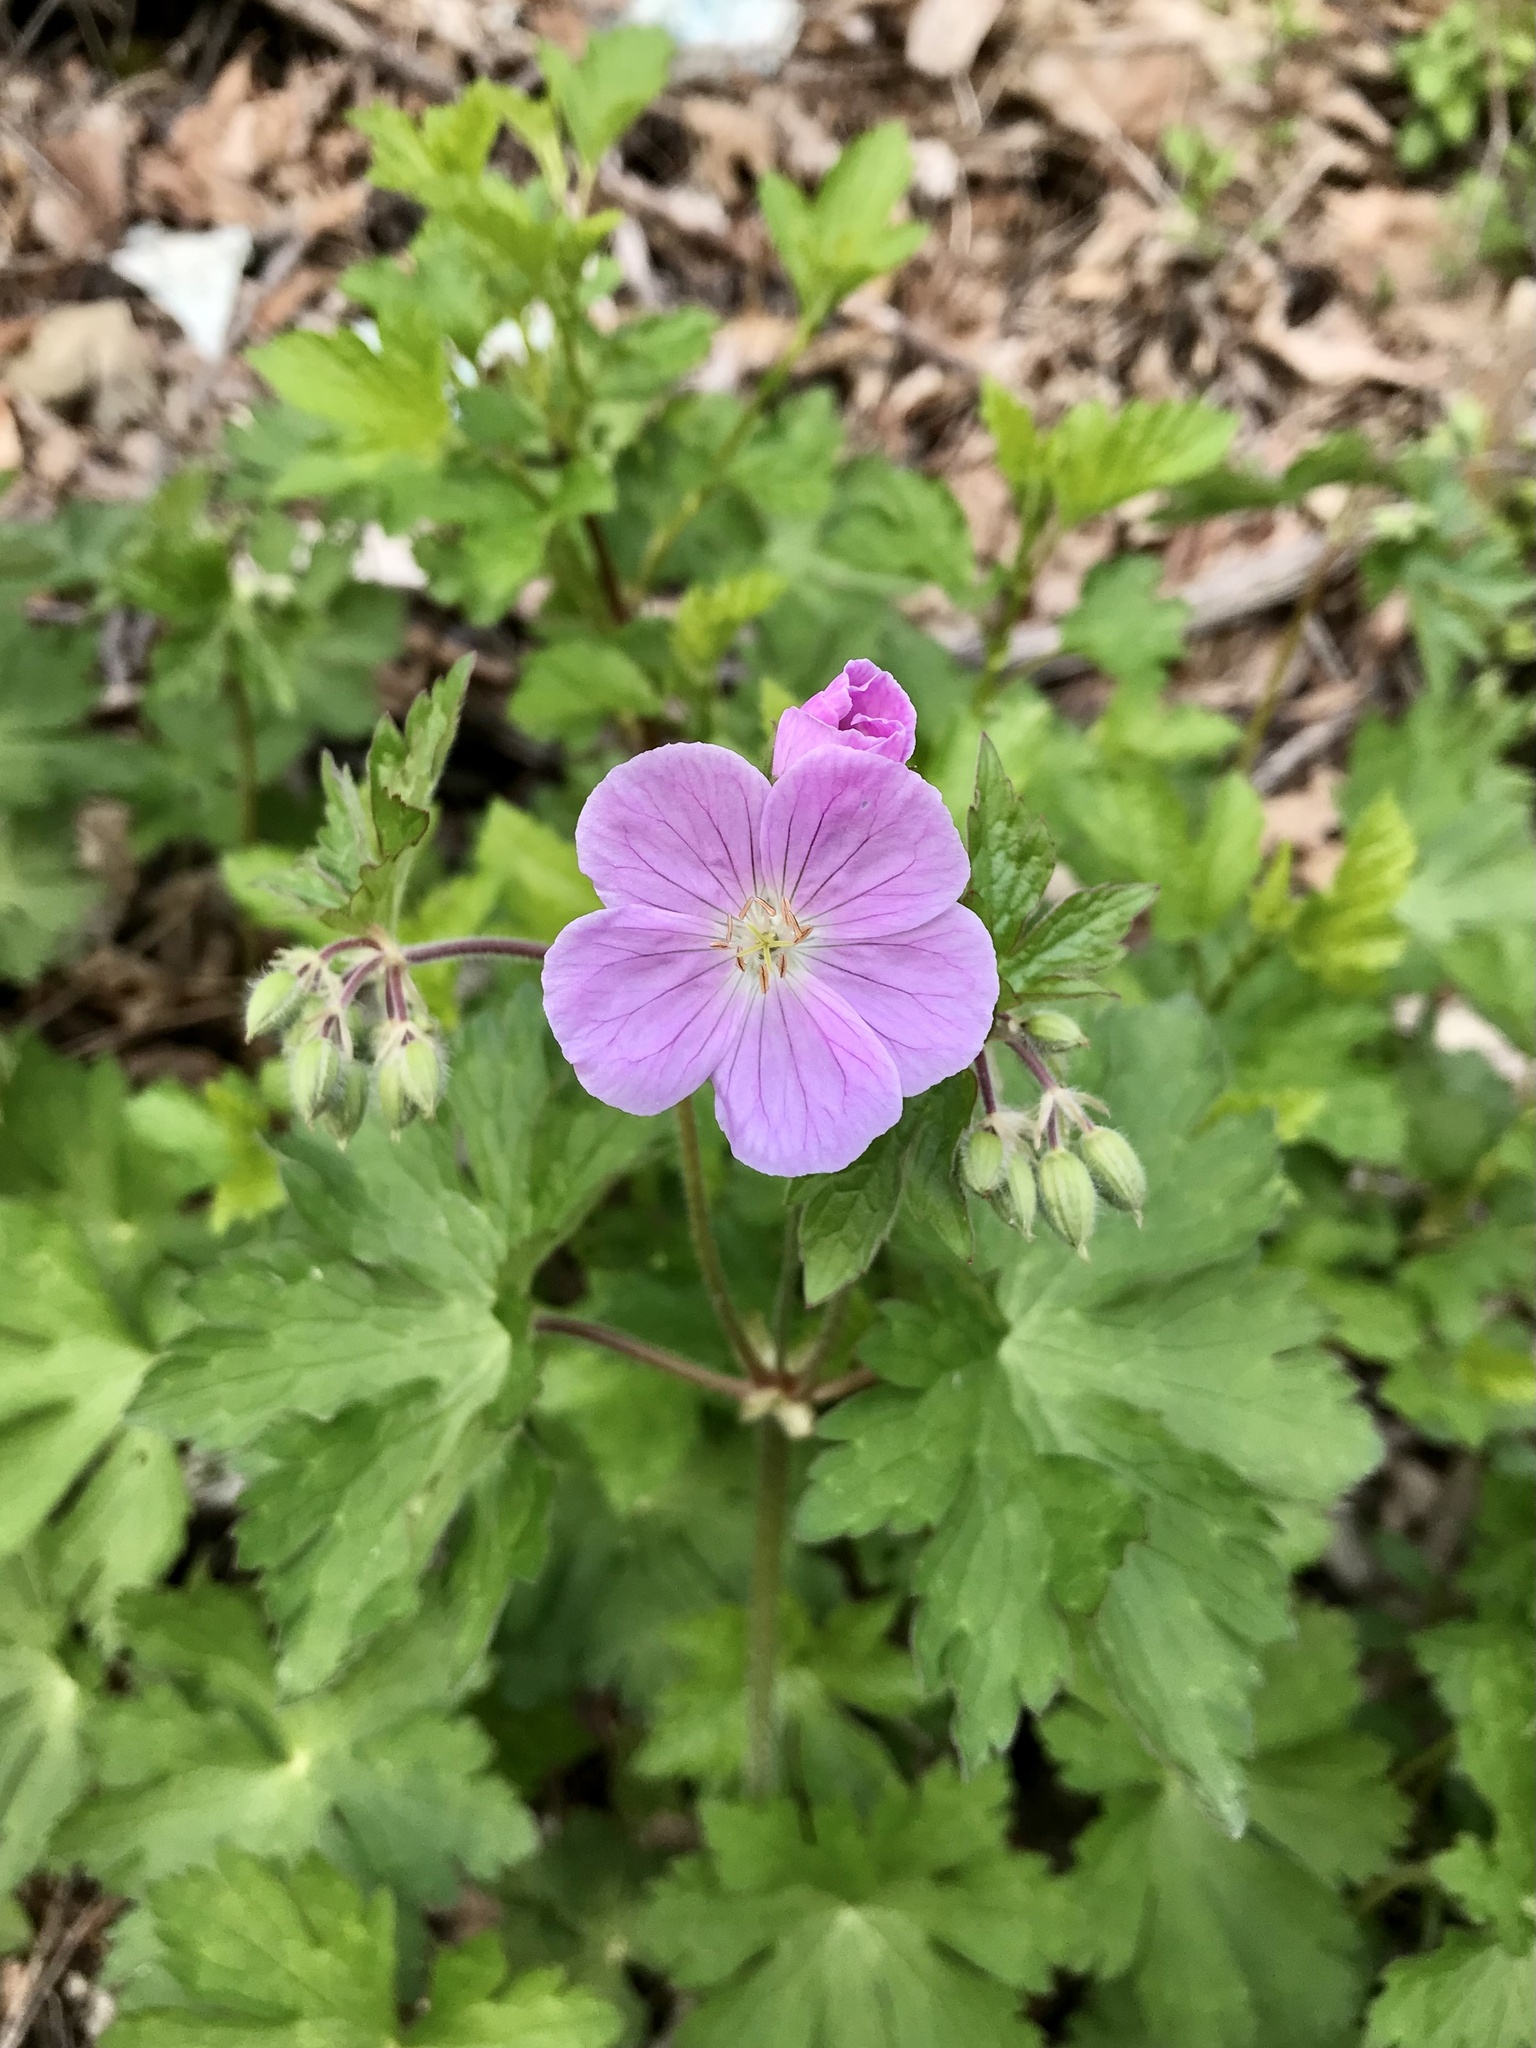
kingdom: Plantae
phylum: Tracheophyta
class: Magnoliopsida
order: Geraniales
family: Geraniaceae
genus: Geranium
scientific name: Geranium maculatum
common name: Spotted geranium
